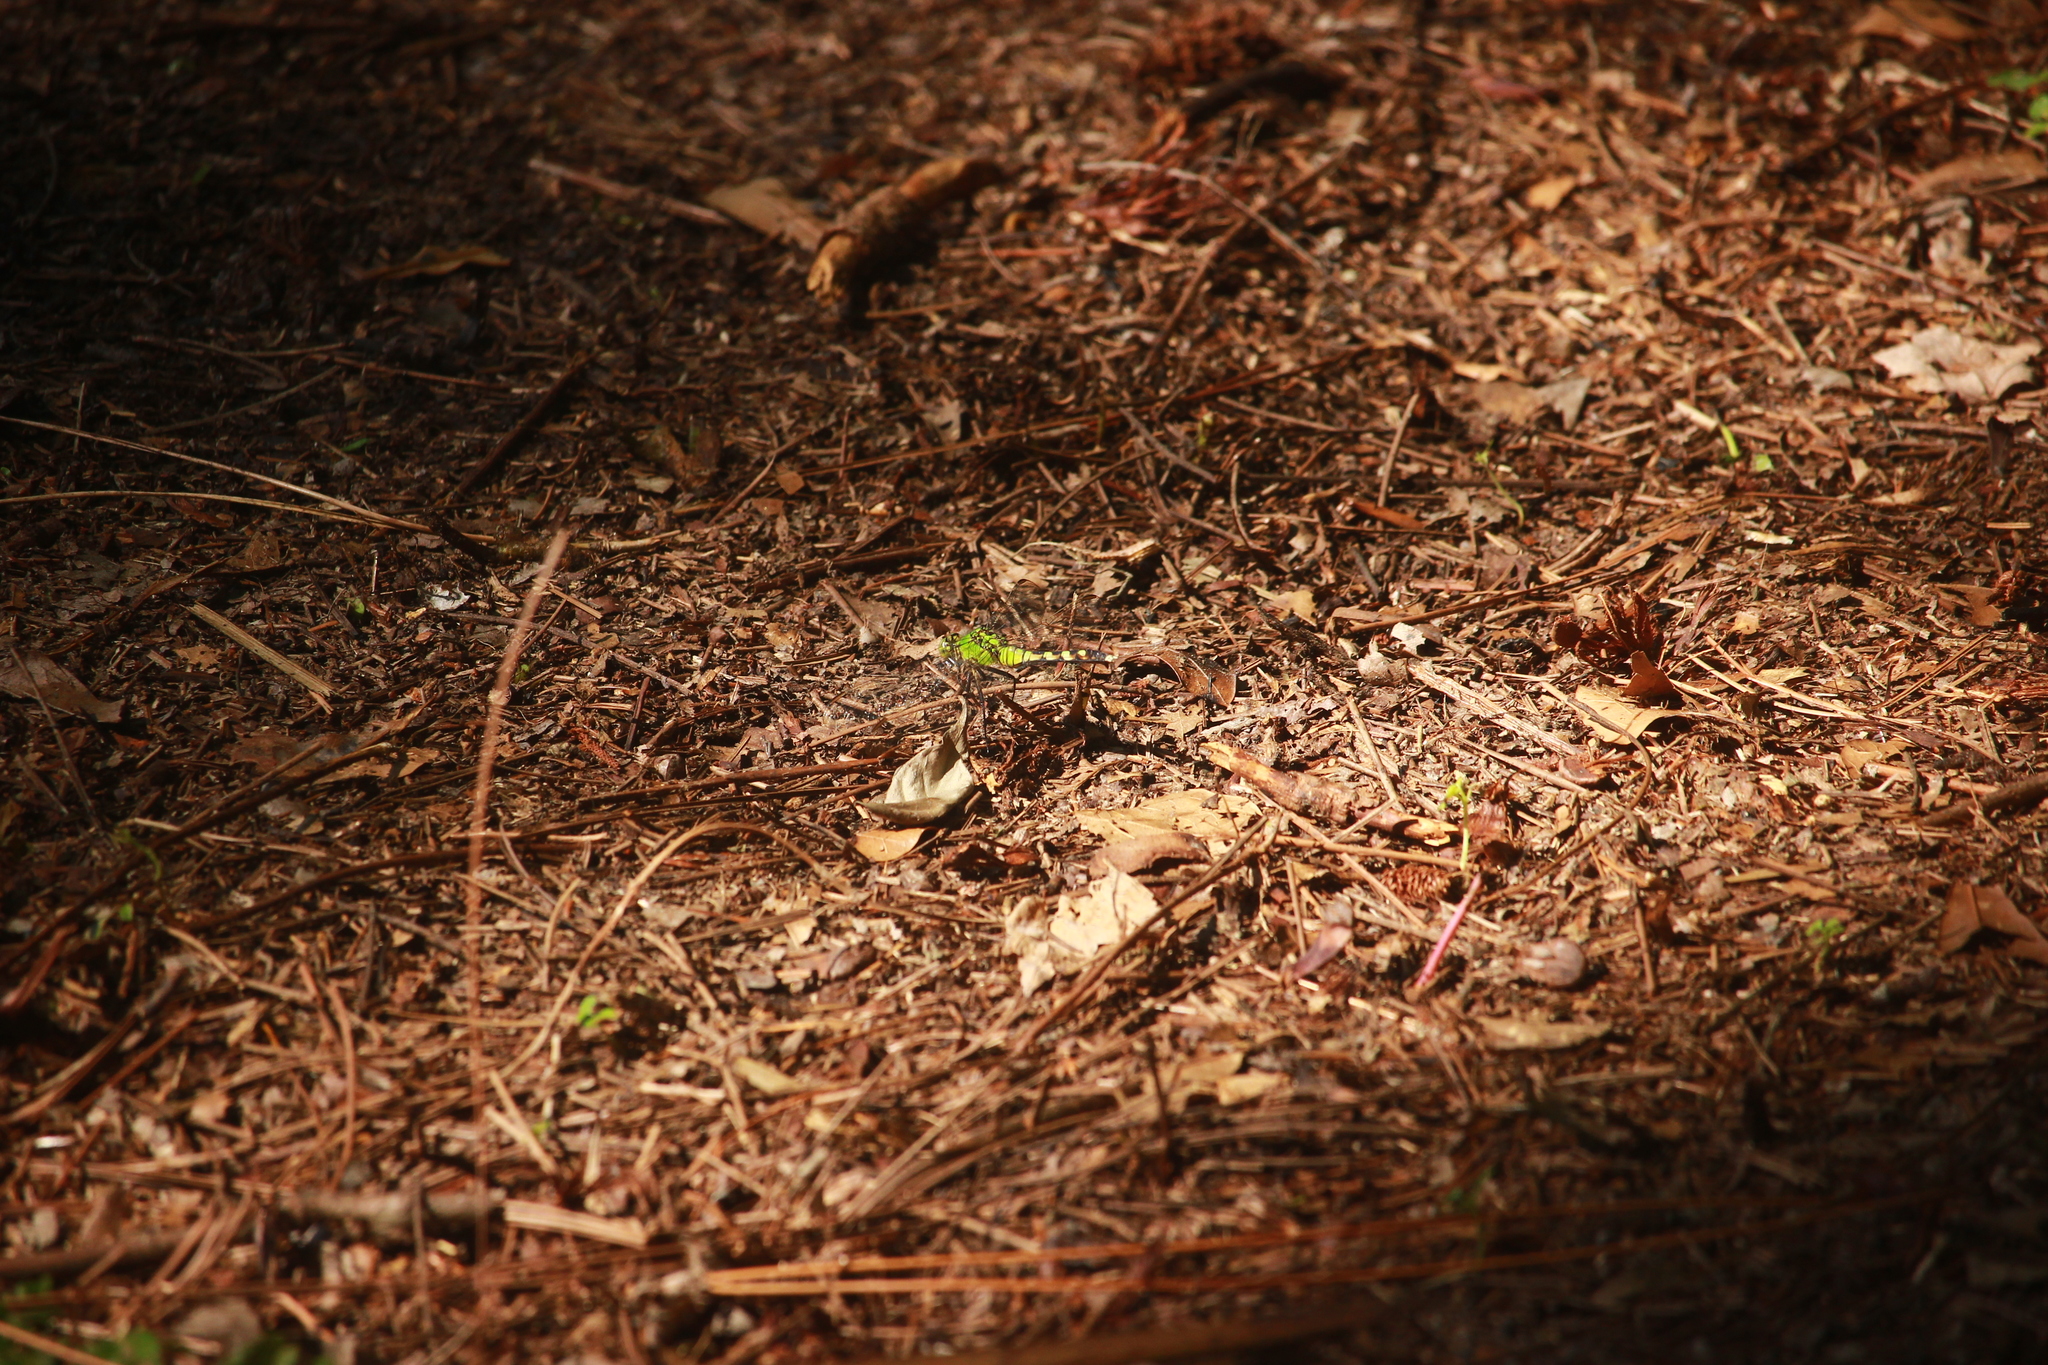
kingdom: Animalia
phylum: Arthropoda
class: Insecta
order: Odonata
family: Libellulidae
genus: Erythemis
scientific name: Erythemis simplicicollis
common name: Eastern pondhawk
